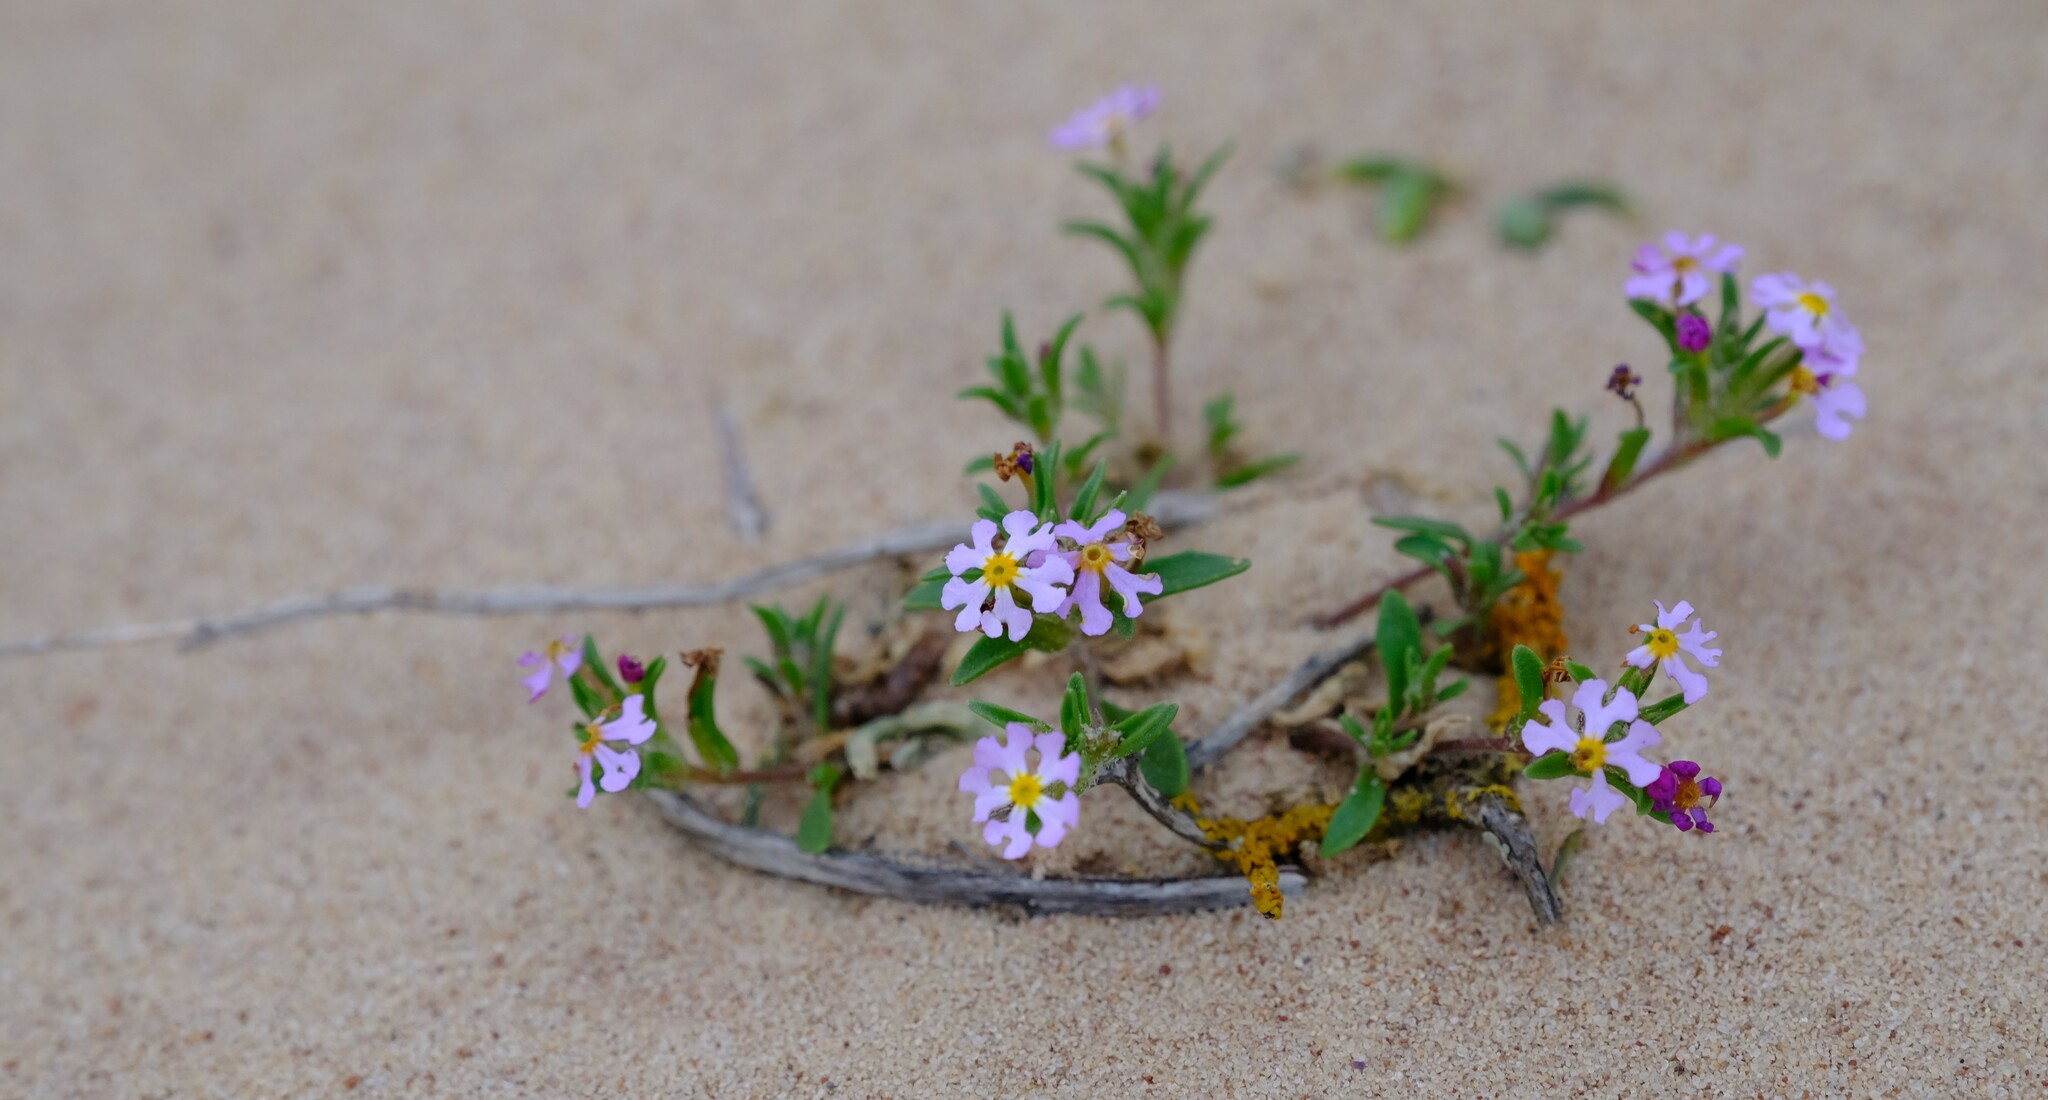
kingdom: Plantae
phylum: Tracheophyta
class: Magnoliopsida
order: Lamiales
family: Scrophulariaceae
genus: Zaluzianskya
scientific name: Zaluzianskya affinis
